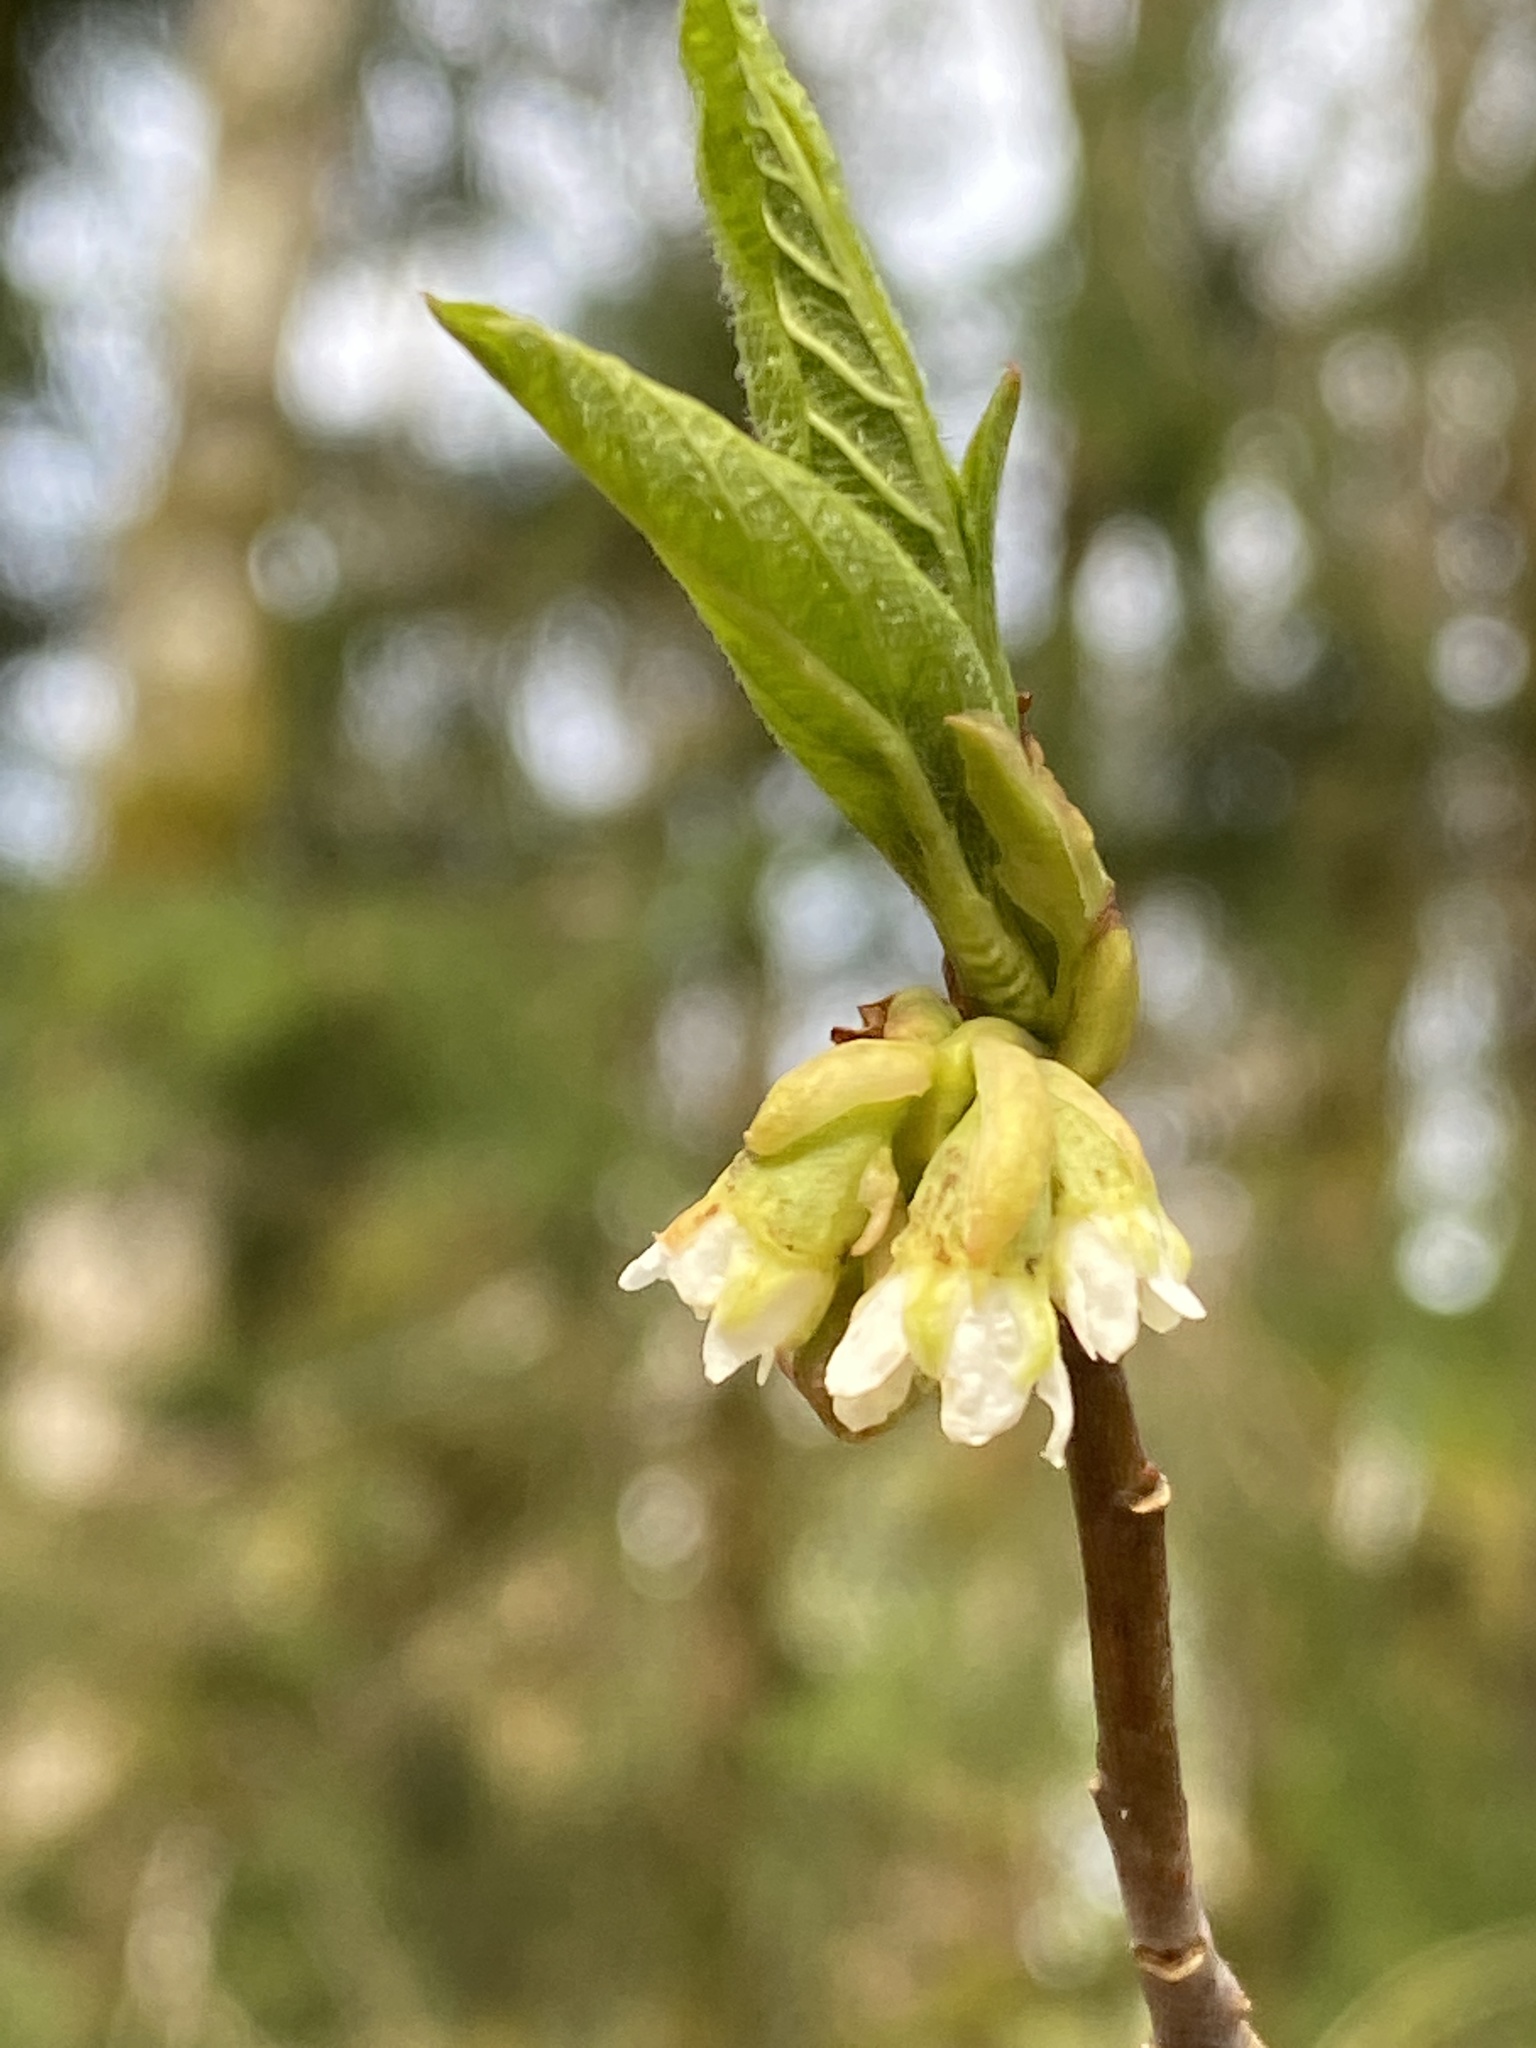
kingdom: Plantae
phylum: Tracheophyta
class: Magnoliopsida
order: Rosales
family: Rosaceae
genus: Oemleria
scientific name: Oemleria cerasiformis
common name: Osoberry
